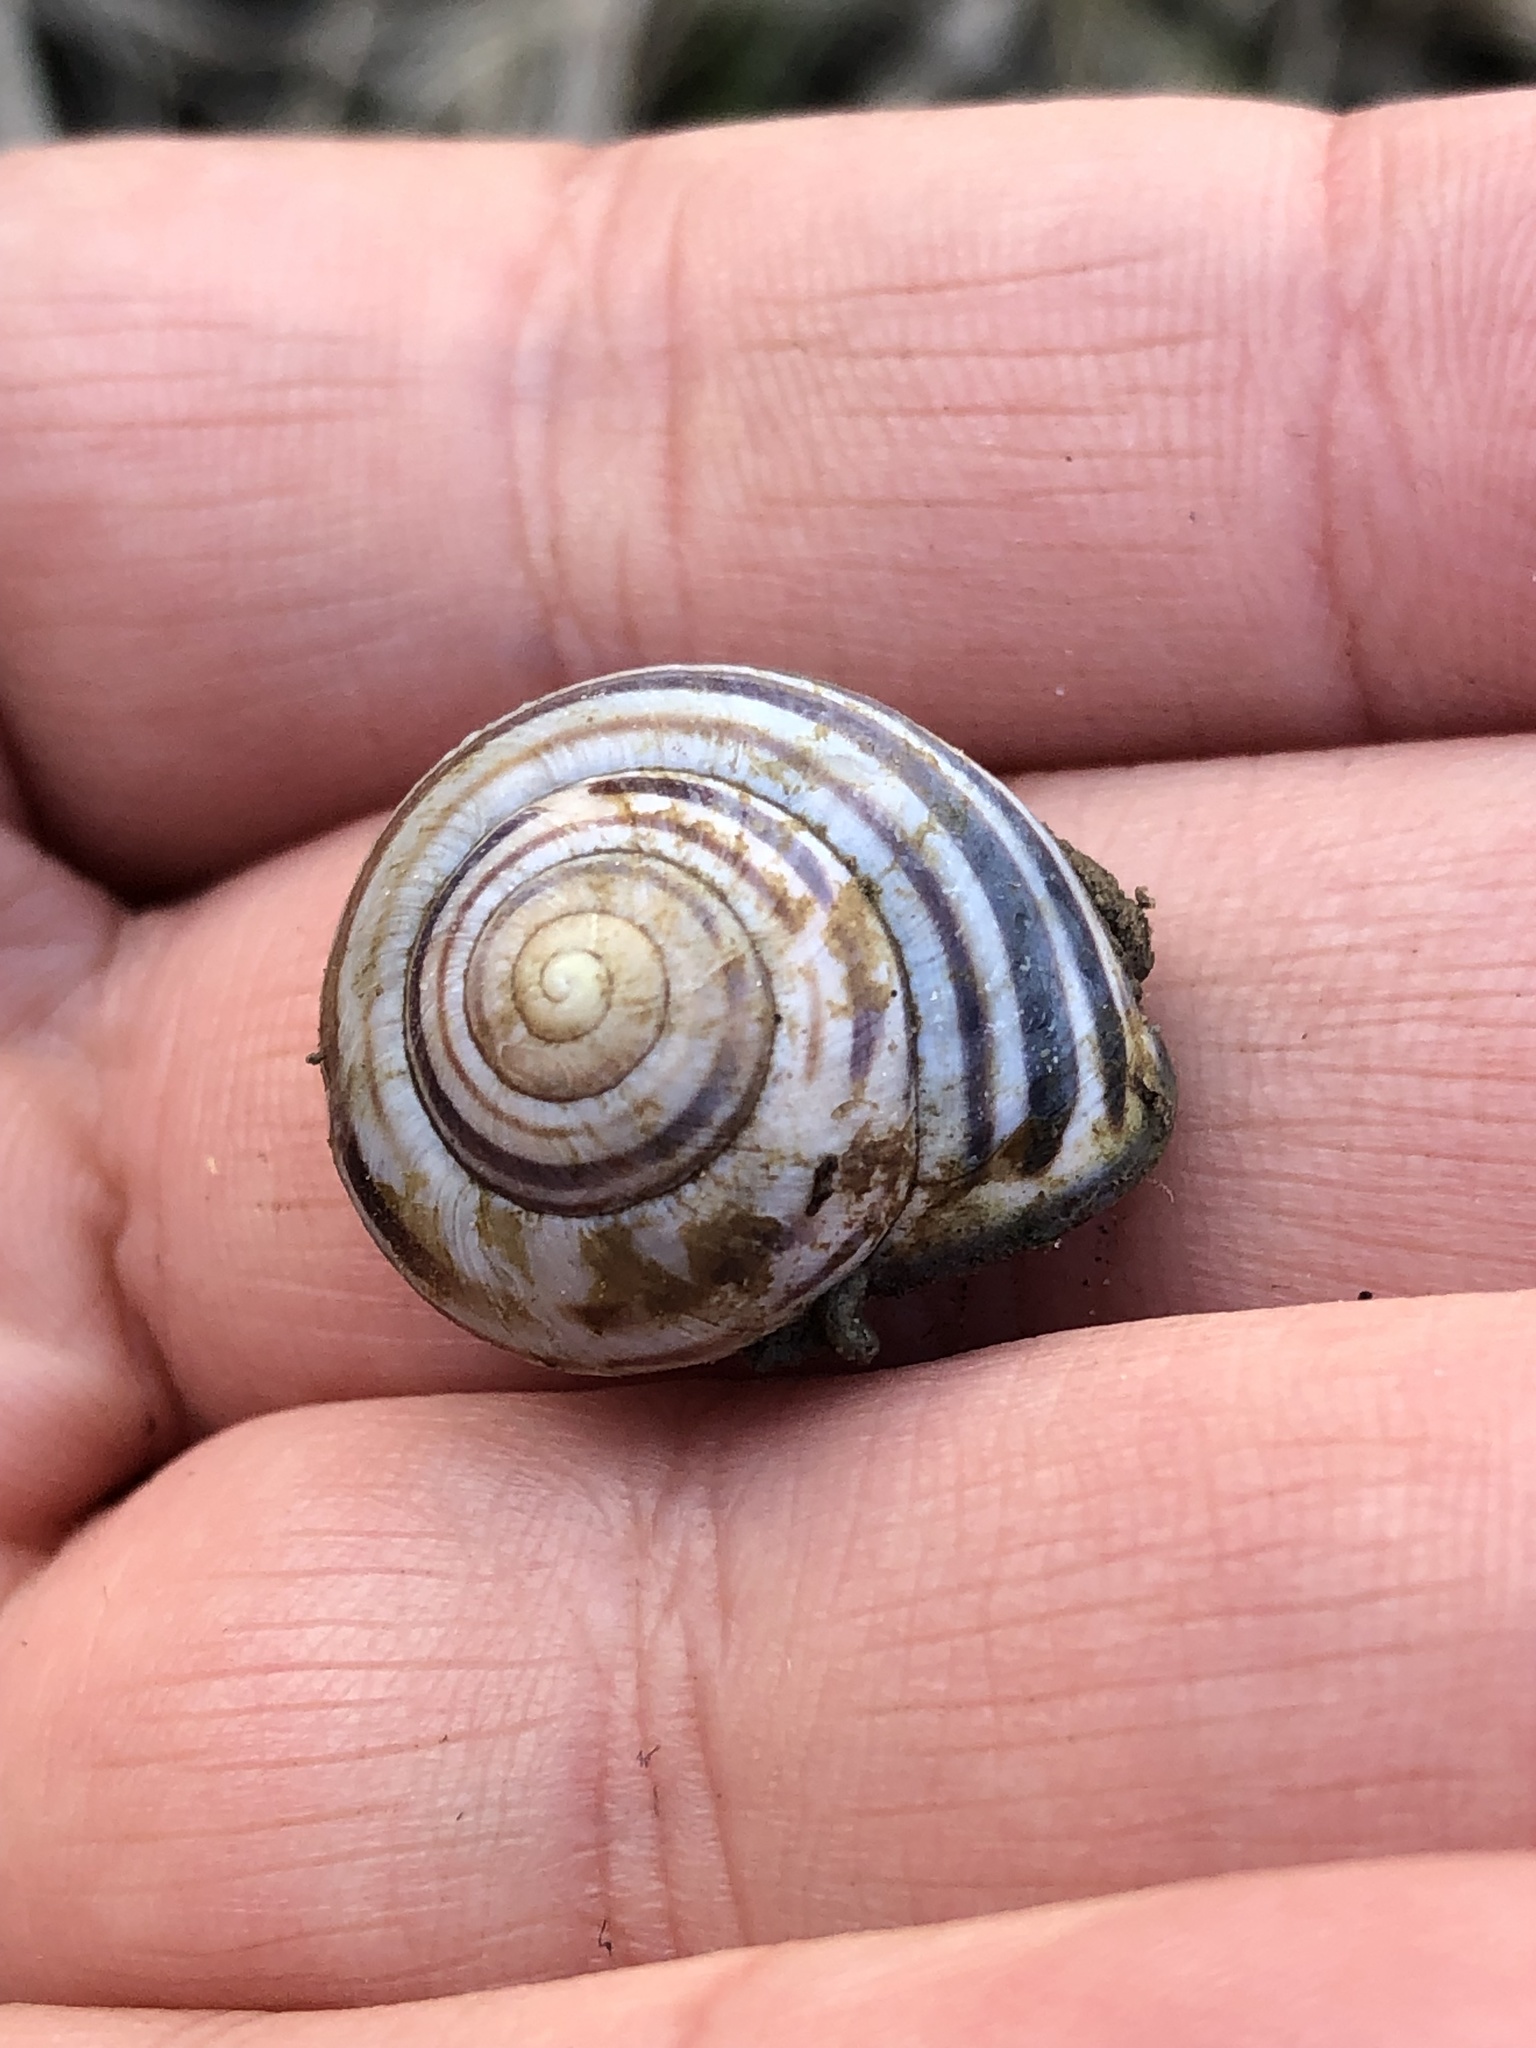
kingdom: Animalia
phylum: Mollusca
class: Gastropoda
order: Stylommatophora
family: Helicidae
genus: Cepaea
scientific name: Cepaea nemoralis
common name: Grovesnail
